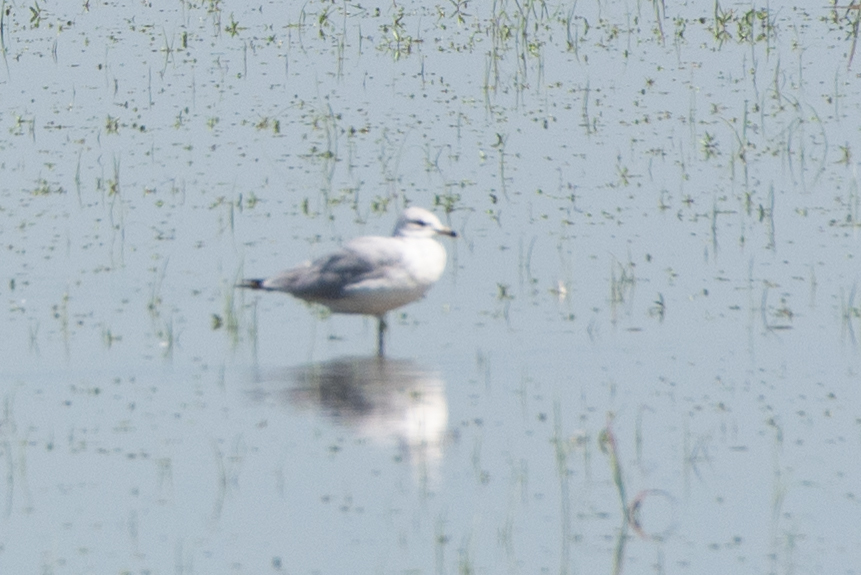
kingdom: Animalia
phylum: Chordata
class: Aves
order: Charadriiformes
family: Laridae
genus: Larus
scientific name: Larus delawarensis
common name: Ring-billed gull
